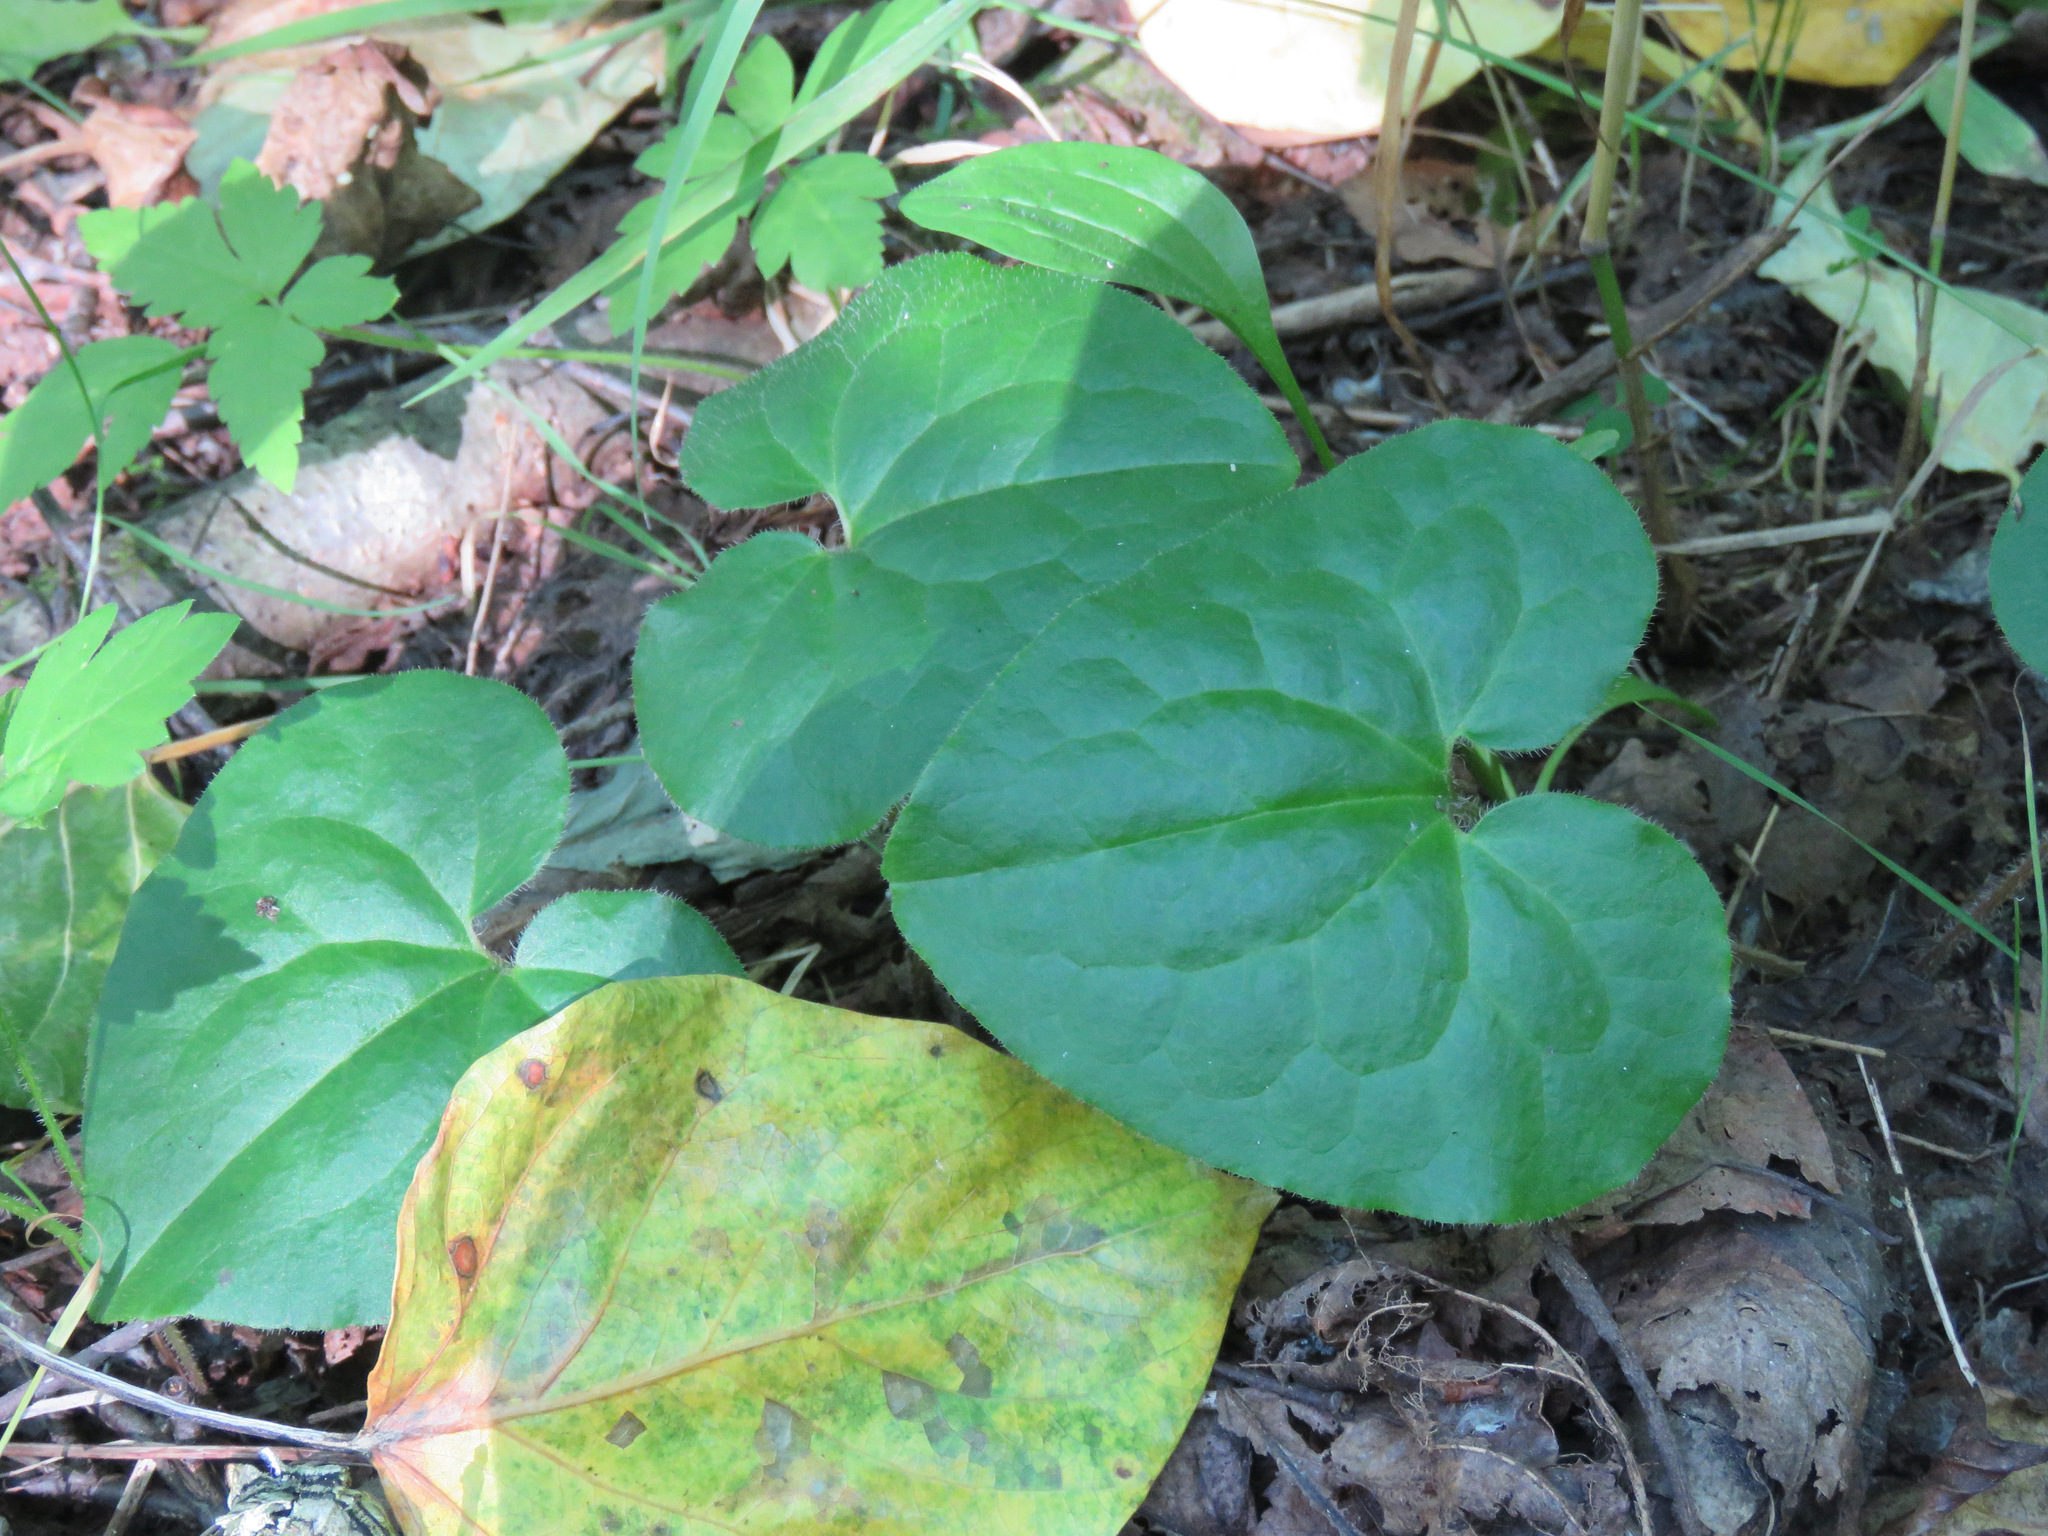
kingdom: Plantae
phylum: Tracheophyta
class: Magnoliopsida
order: Piperales
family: Aristolochiaceae
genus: Asarum
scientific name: Asarum caudatum
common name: Wild ginger
